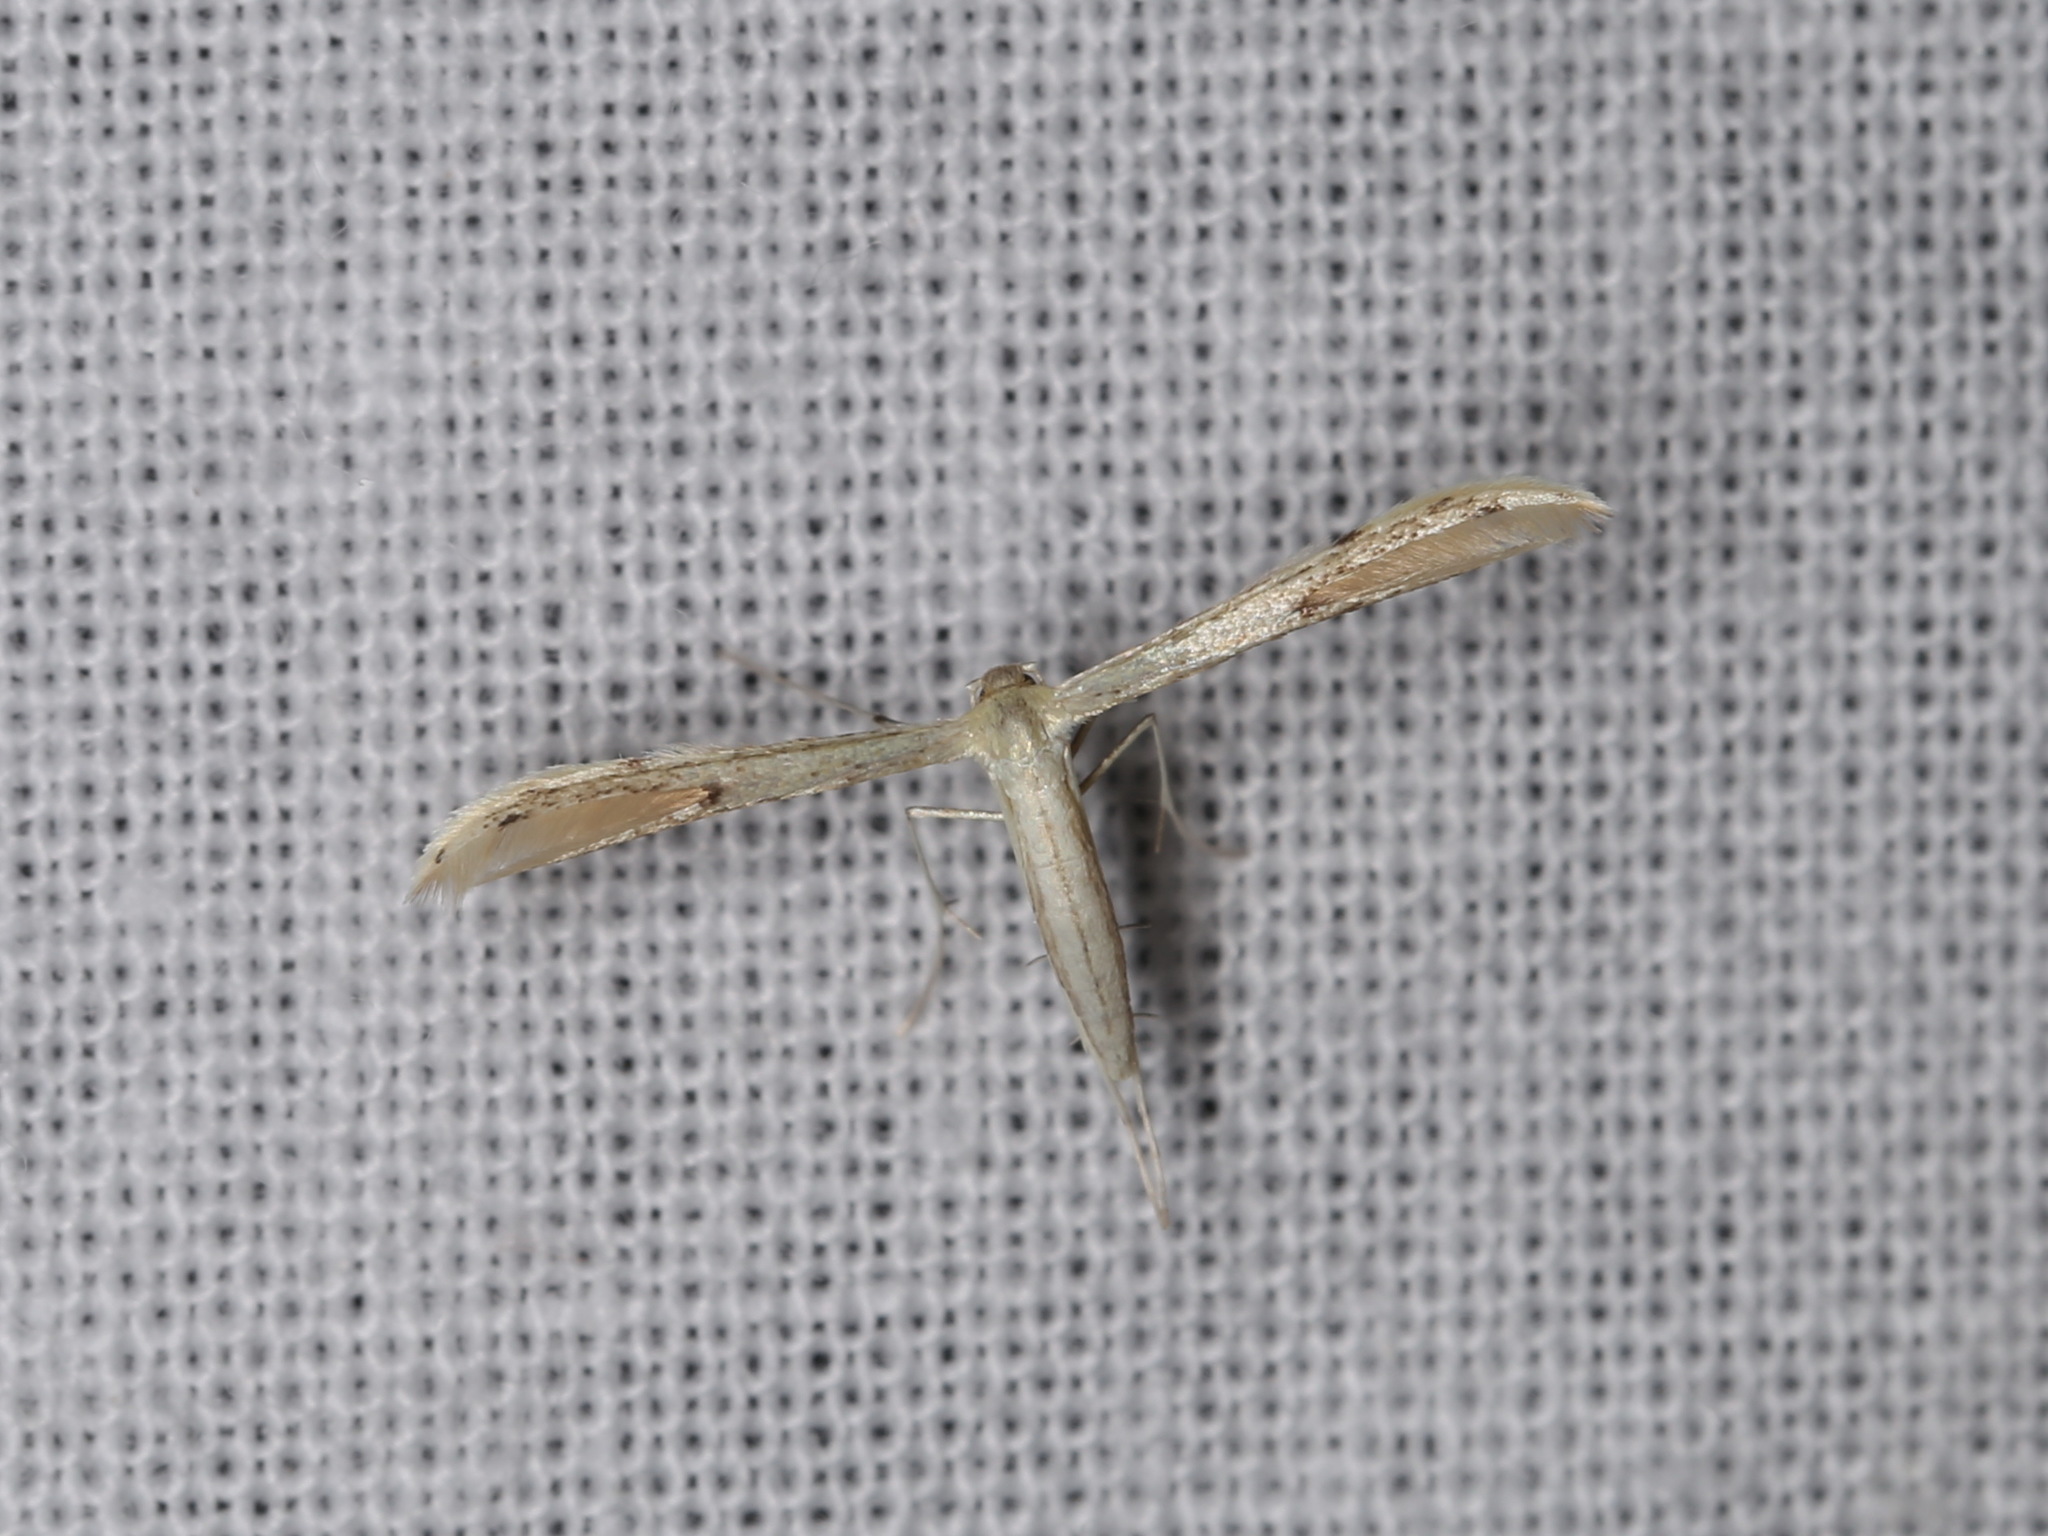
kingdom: Animalia
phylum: Arthropoda
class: Insecta
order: Lepidoptera
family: Pterophoridae
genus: Adaina
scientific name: Adaina microdactyla
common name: Hemp-agrimony plume
